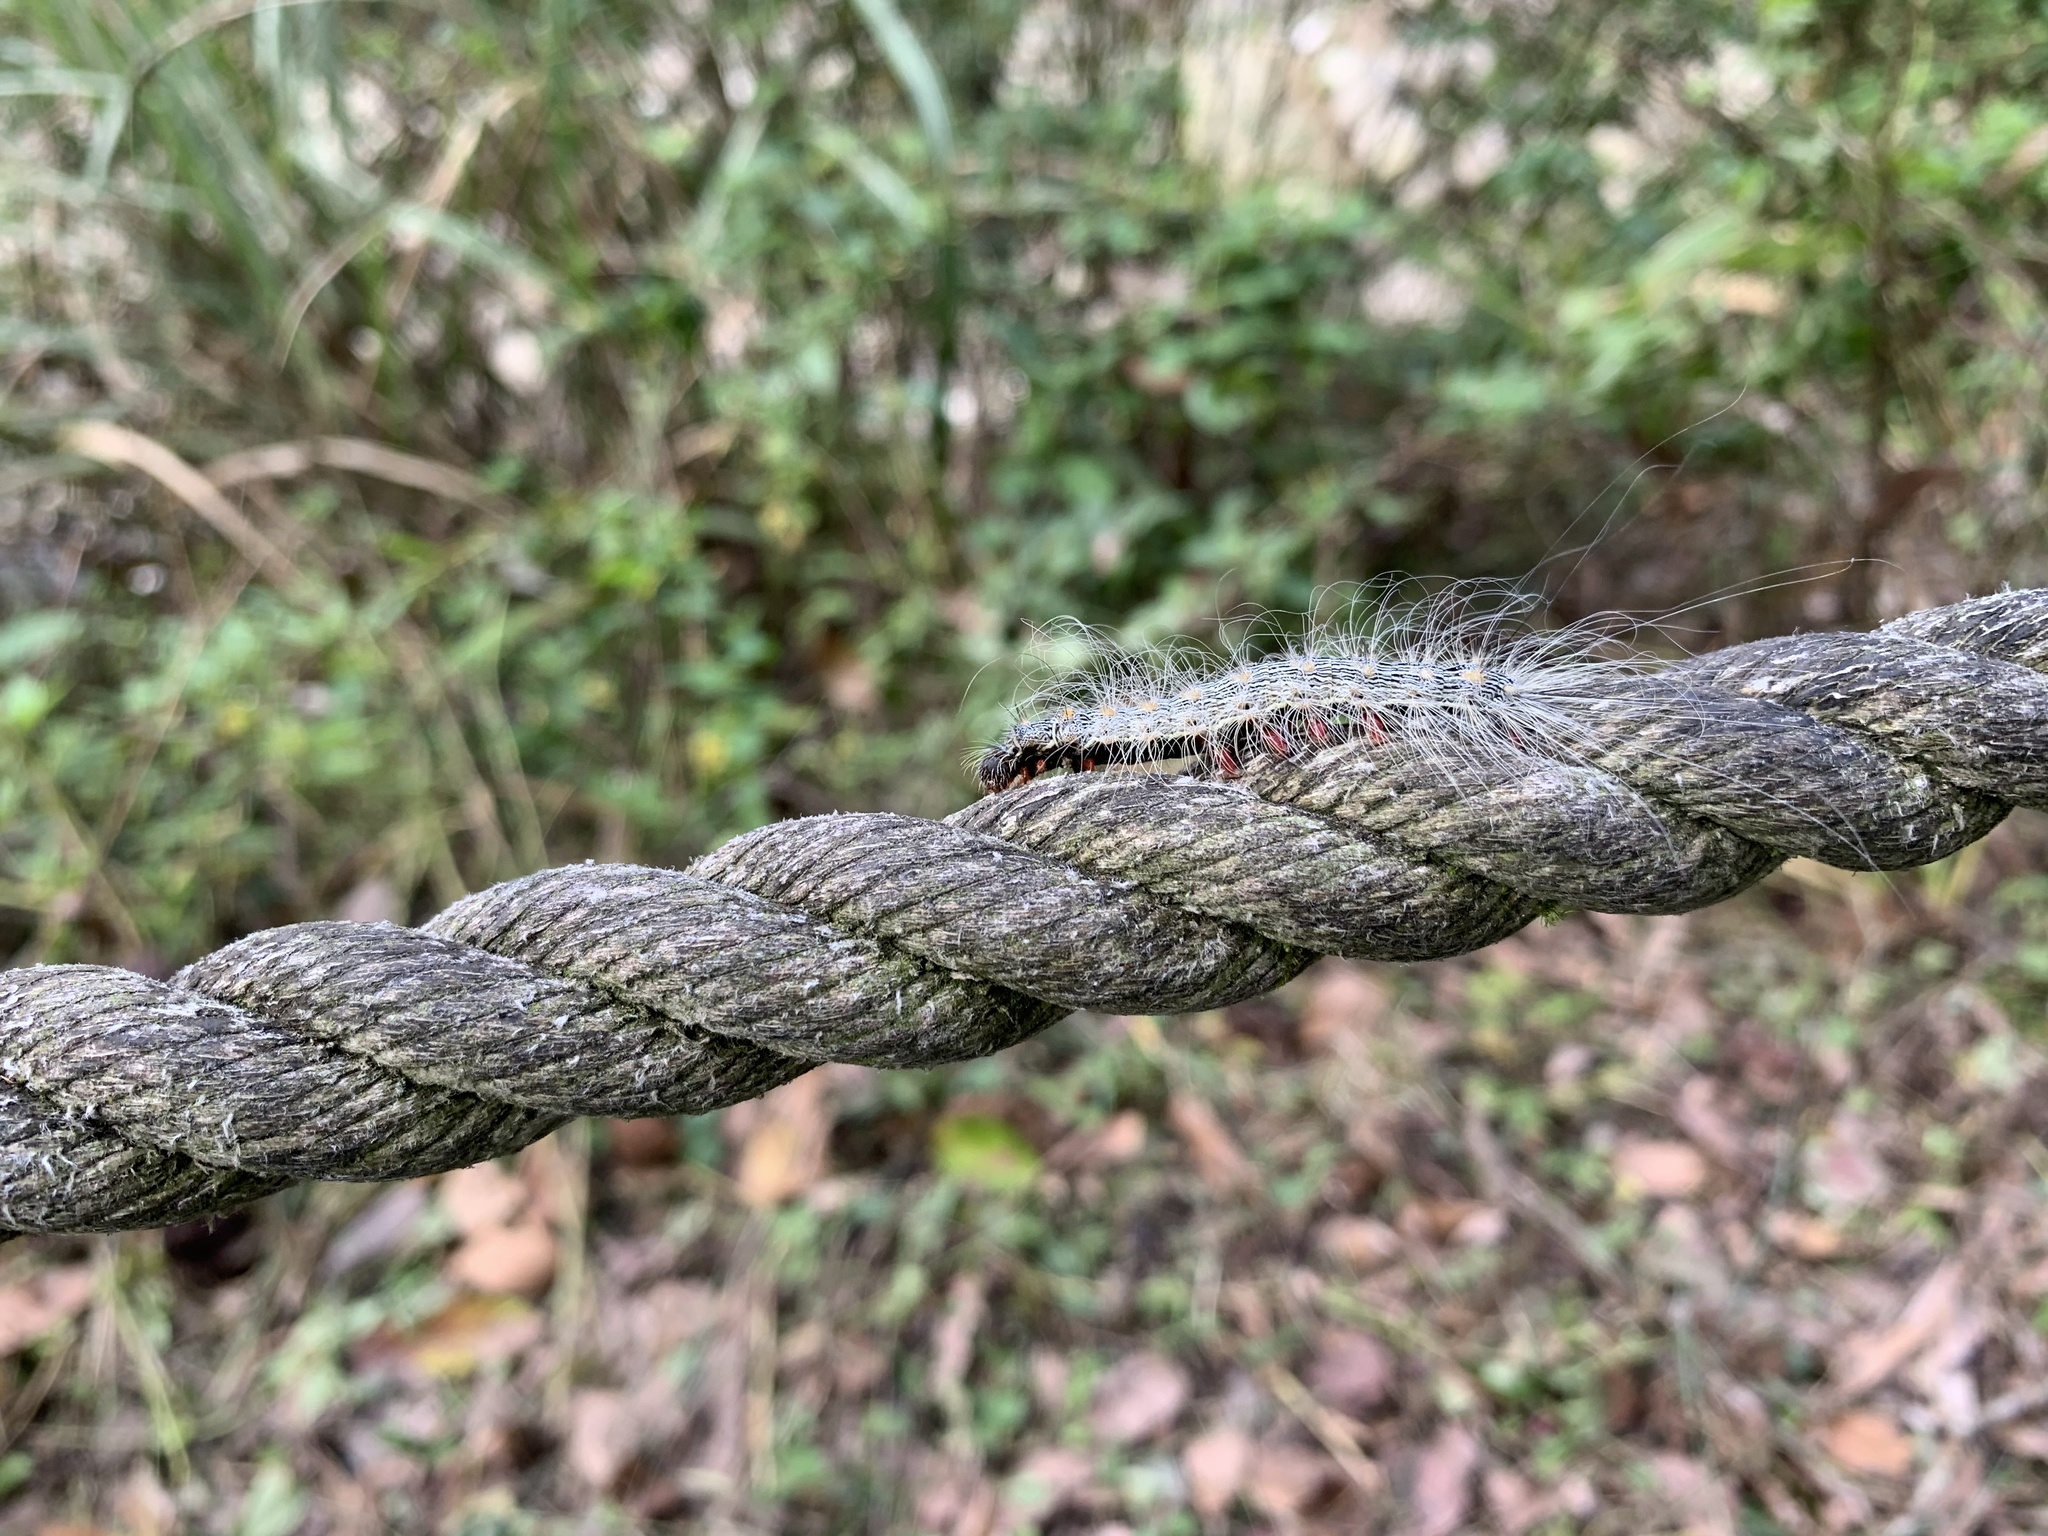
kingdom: Animalia
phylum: Arthropoda
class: Insecta
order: Lepidoptera
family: Erebidae
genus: Chrysaeglia
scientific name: Chrysaeglia magnifica
